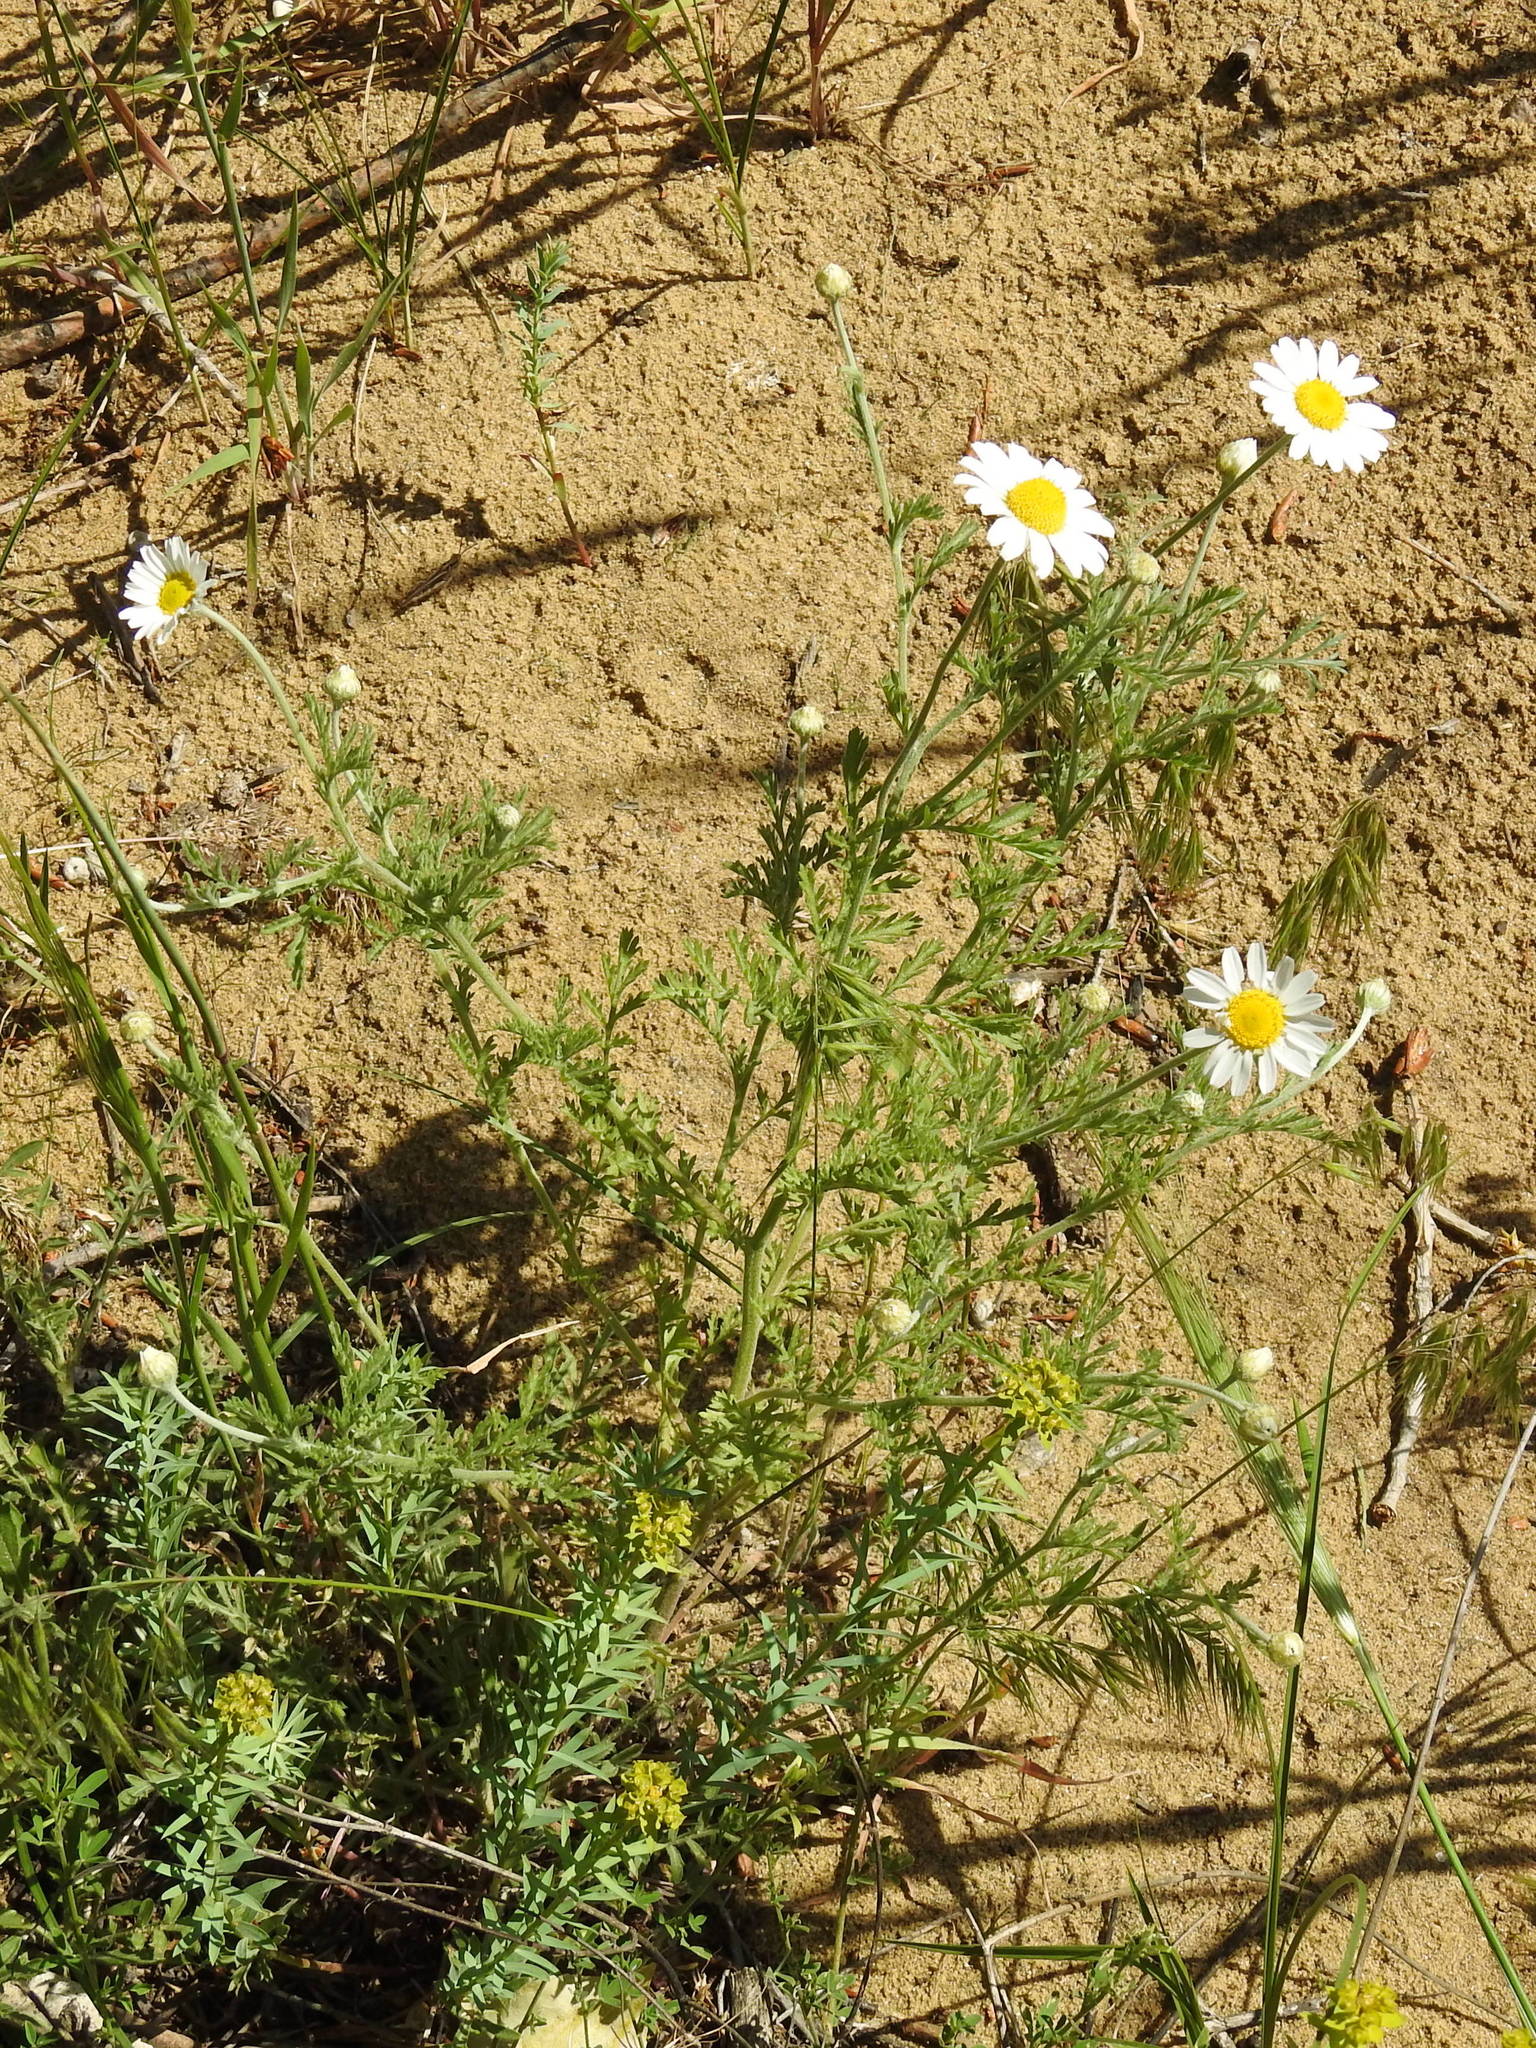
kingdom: Plantae
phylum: Tracheophyta
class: Magnoliopsida
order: Asterales
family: Asteraceae
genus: Anthemis
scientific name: Anthemis ruthenica
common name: Eastern chamomile
